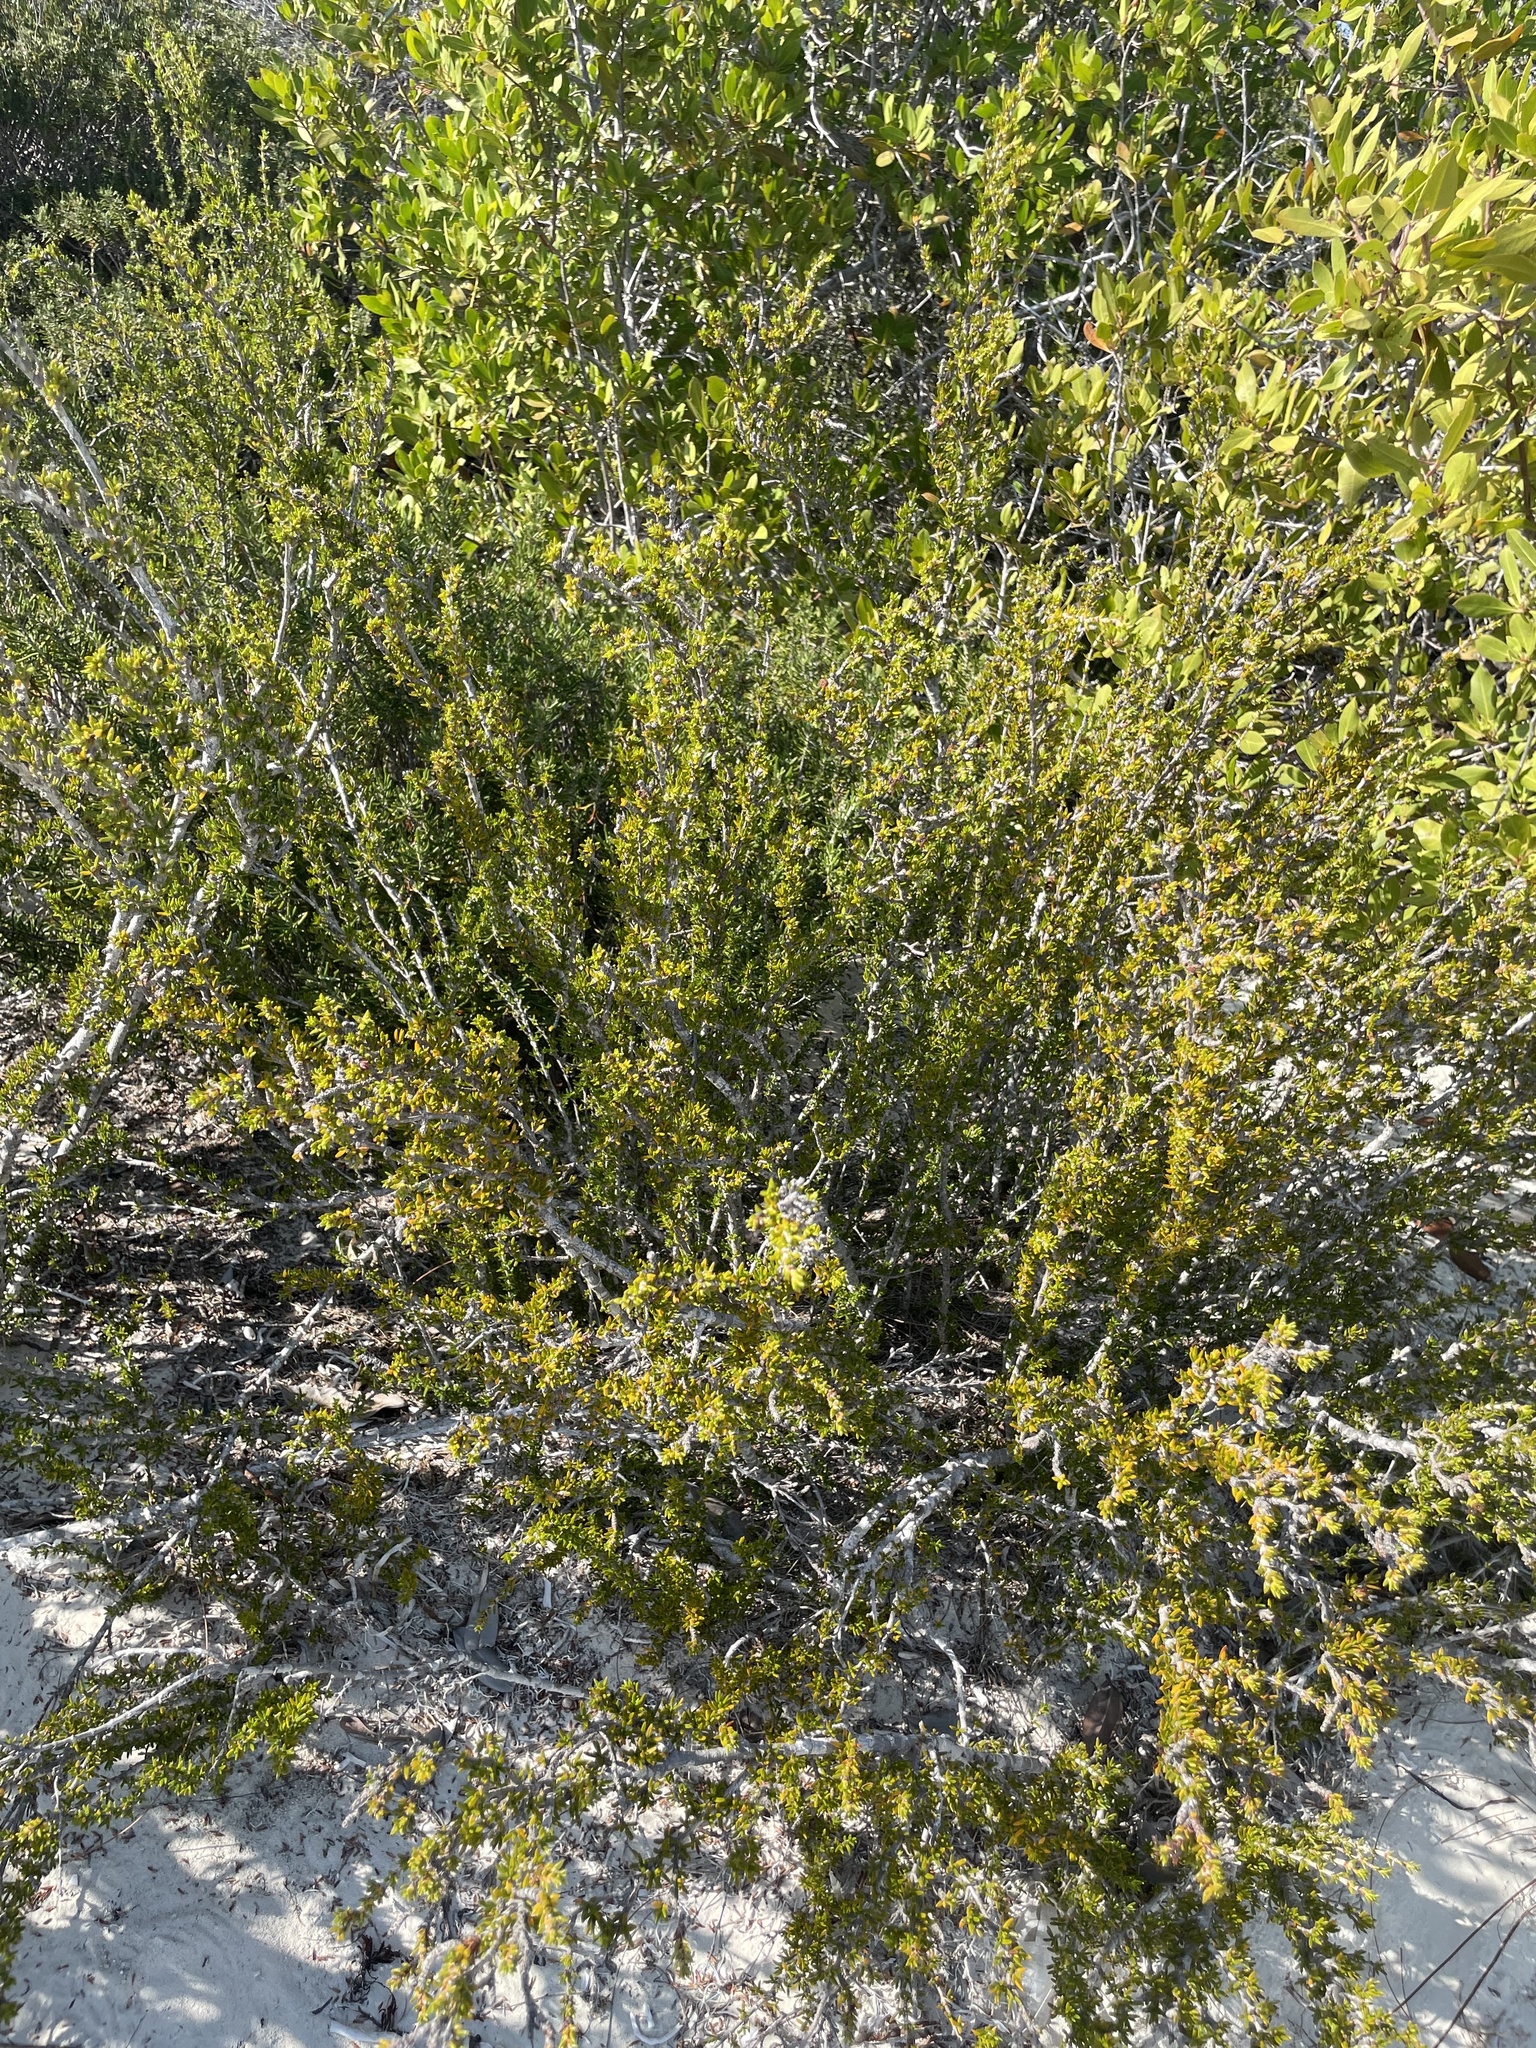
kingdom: Plantae
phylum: Tracheophyta
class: Magnoliopsida
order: Gentianales
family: Rubiaceae
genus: Rachicallis
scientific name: Rachicallis americana
